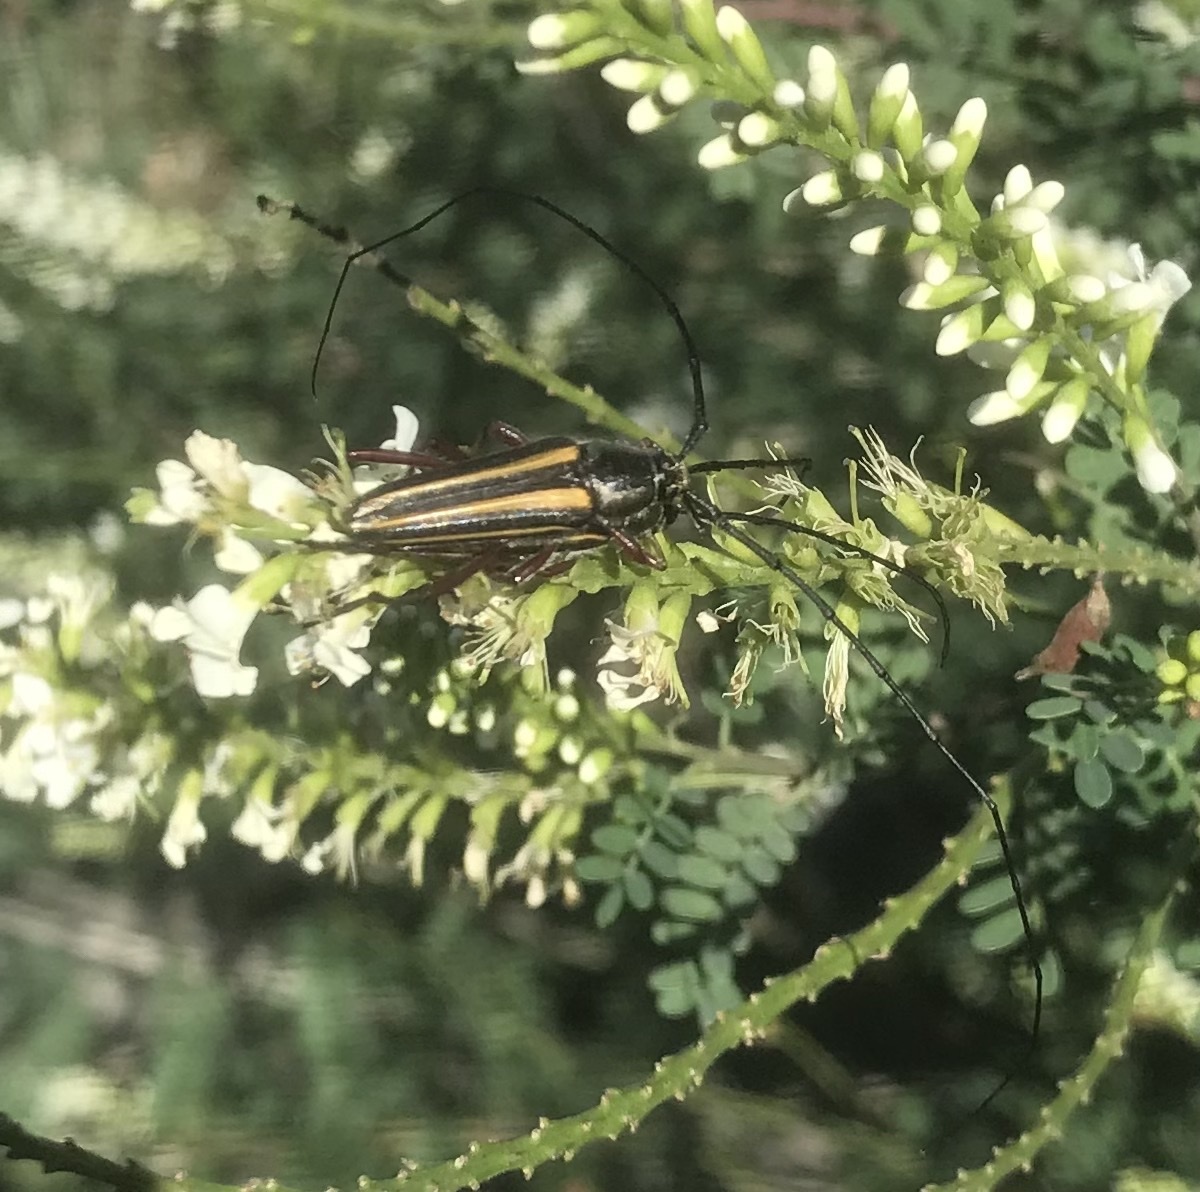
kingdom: Animalia
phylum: Arthropoda
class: Insecta
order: Coleoptera
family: Cerambycidae
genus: Sphaenothecus
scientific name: Sphaenothecus bilineatus
